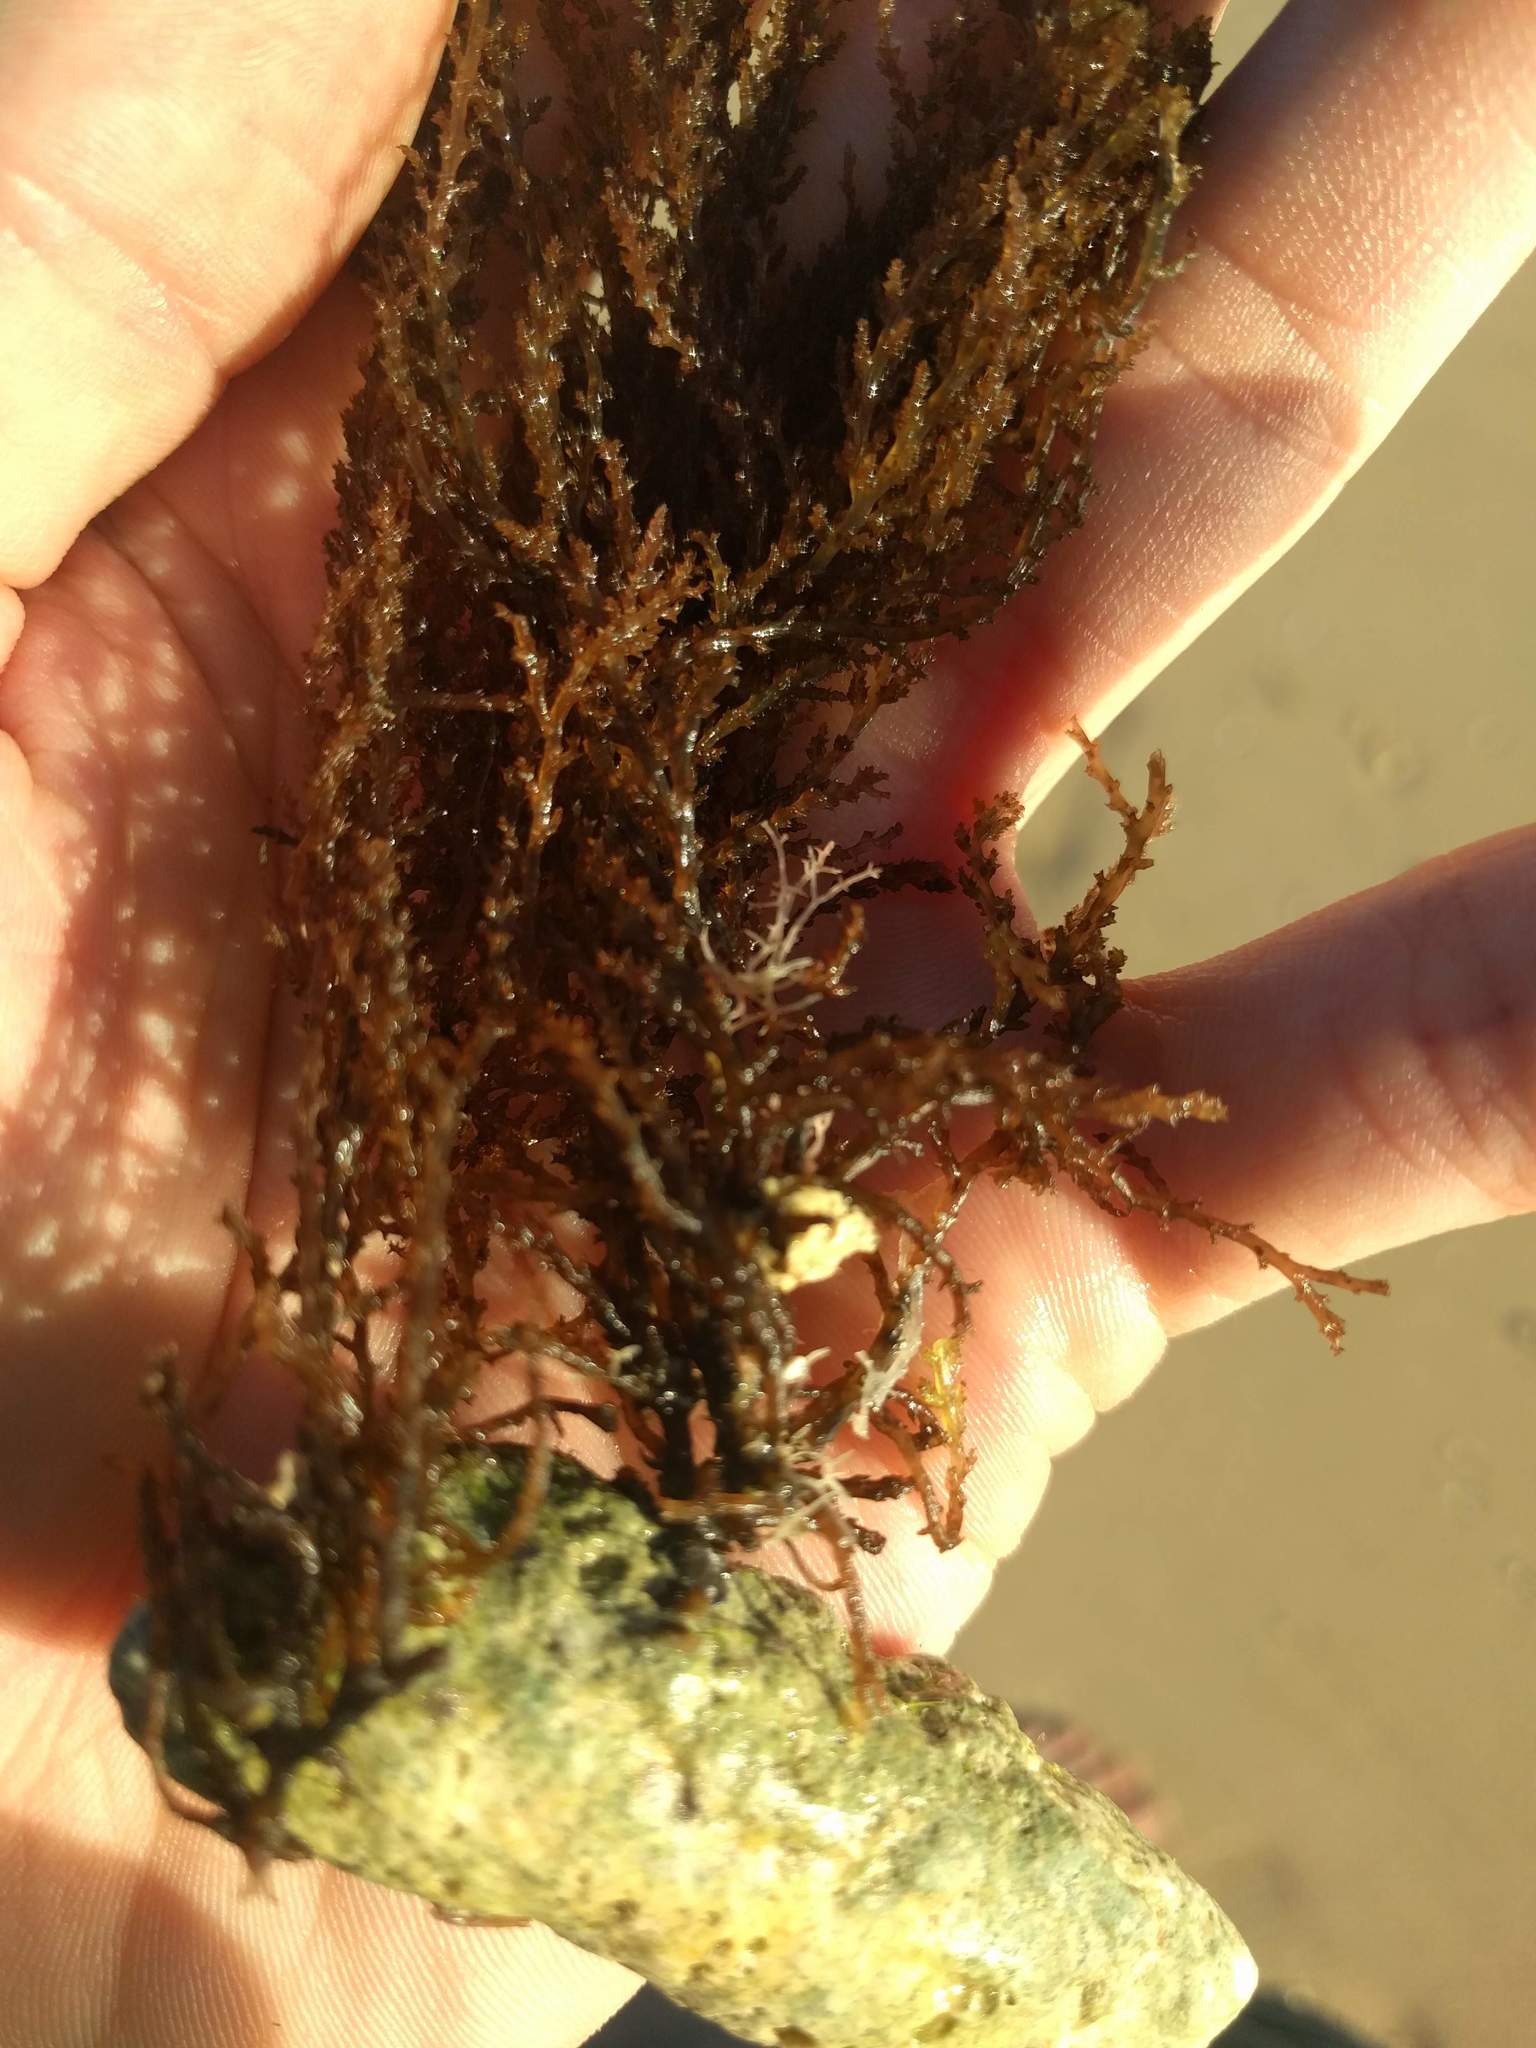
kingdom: Plantae
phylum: Rhodophyta
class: Florideophyceae
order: Ceramiales
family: Rhodomelaceae
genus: Acanthophora
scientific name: Acanthophora spicifera
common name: Red algae
